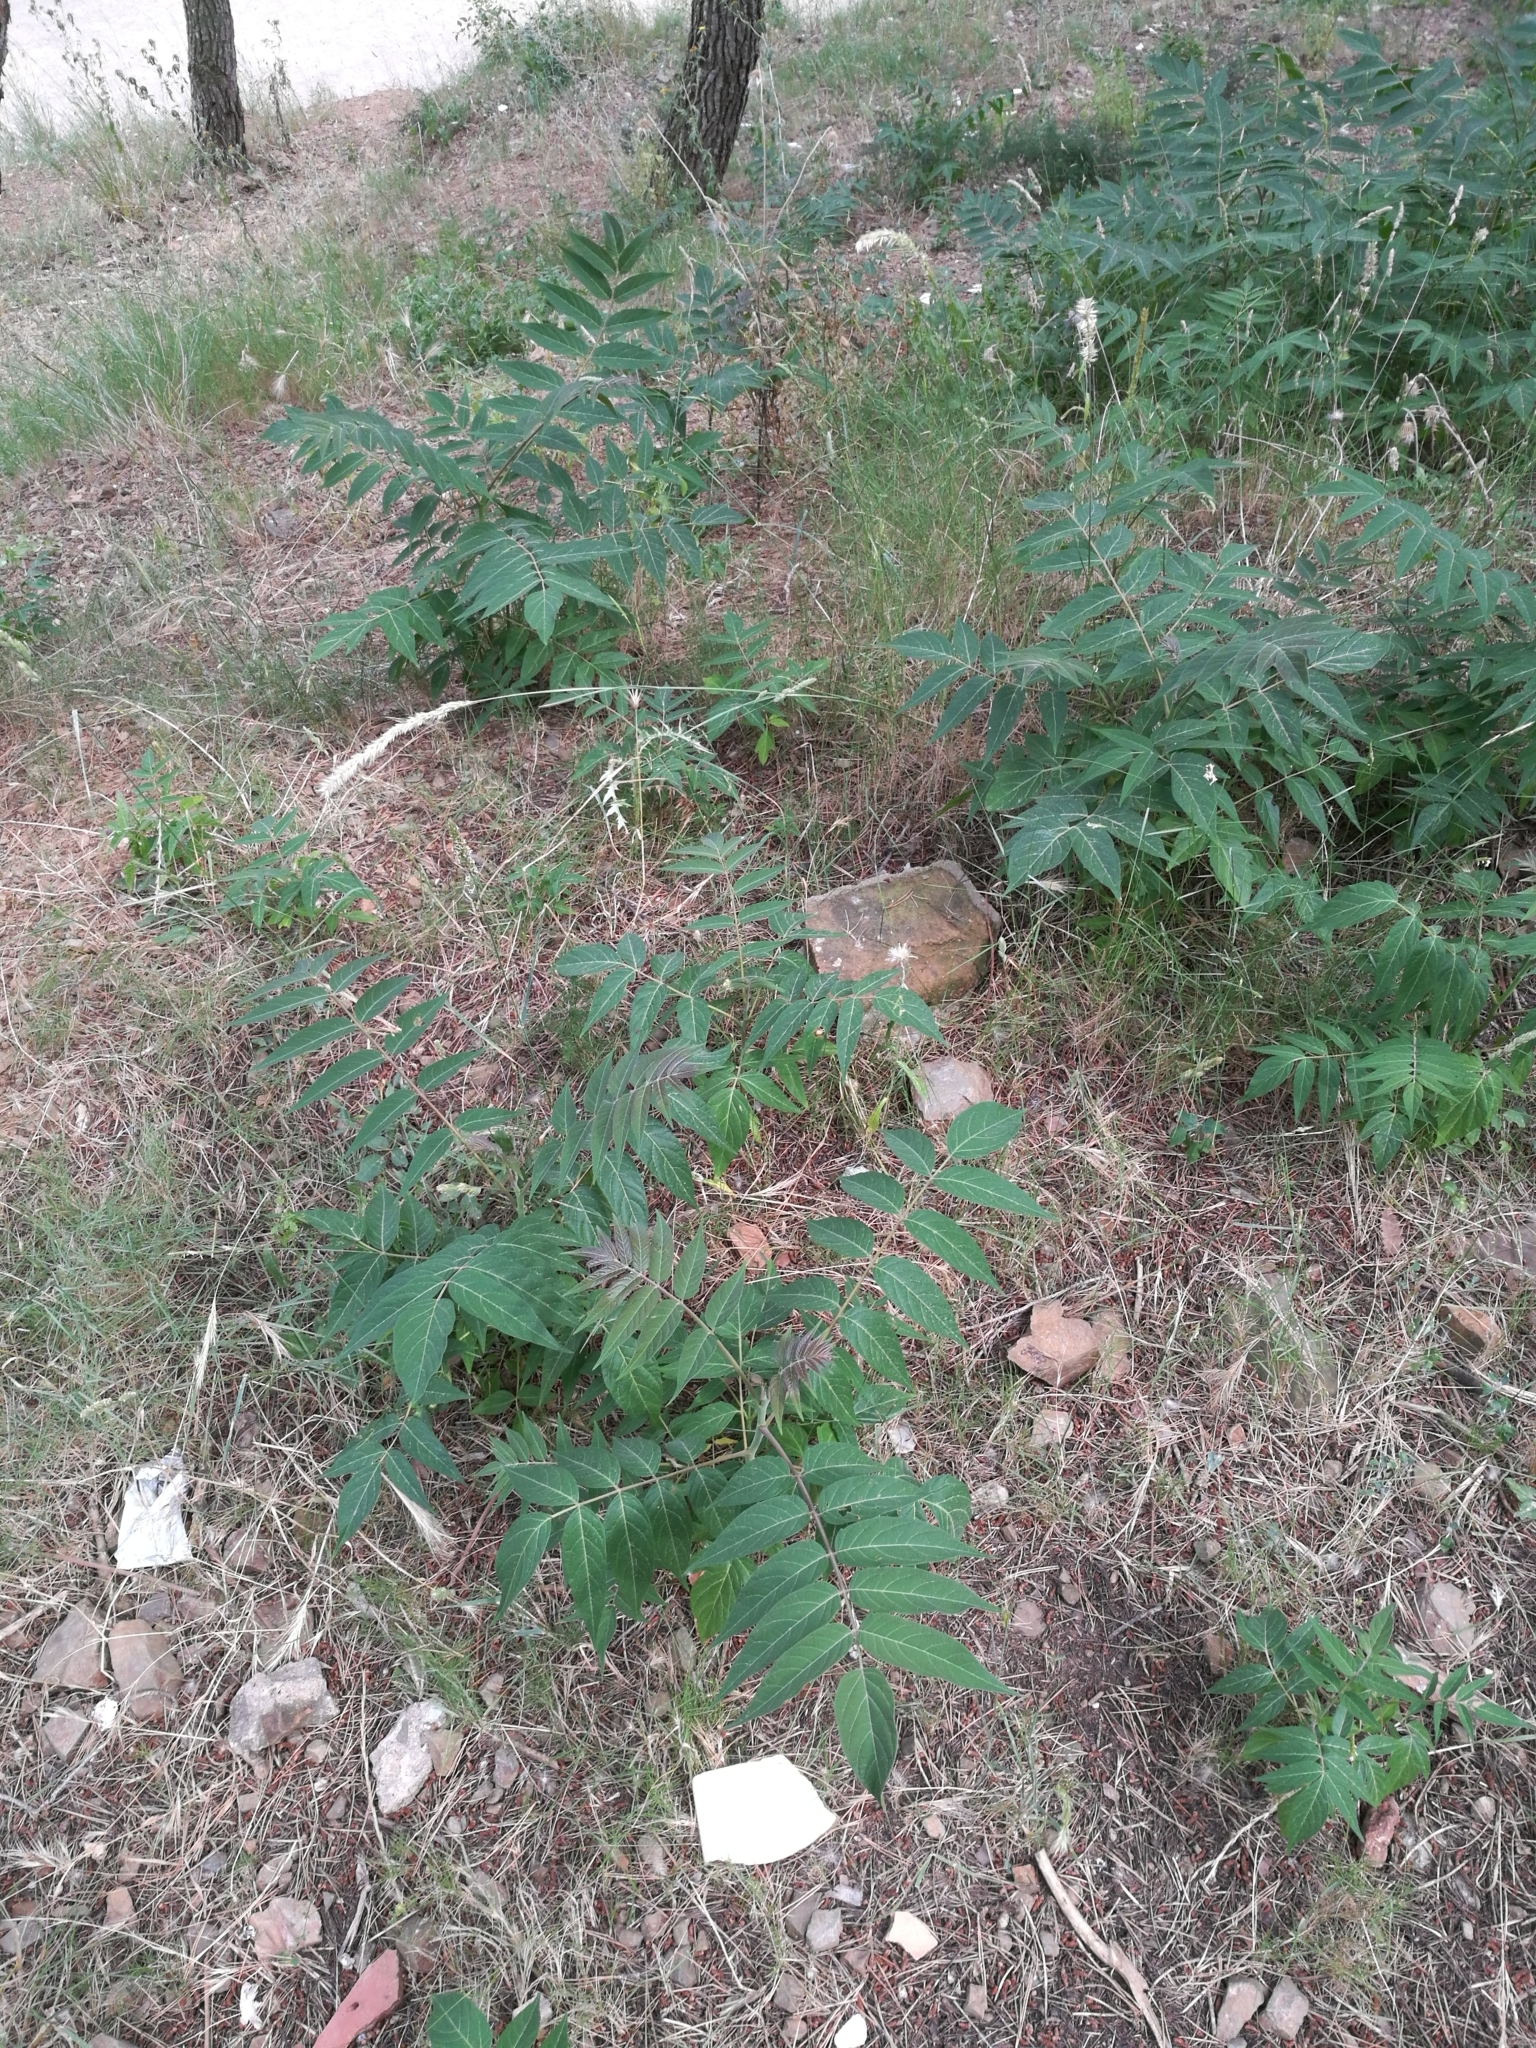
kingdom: Plantae
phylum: Tracheophyta
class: Magnoliopsida
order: Sapindales
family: Simaroubaceae
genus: Ailanthus
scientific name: Ailanthus altissima
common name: Tree-of-heaven
